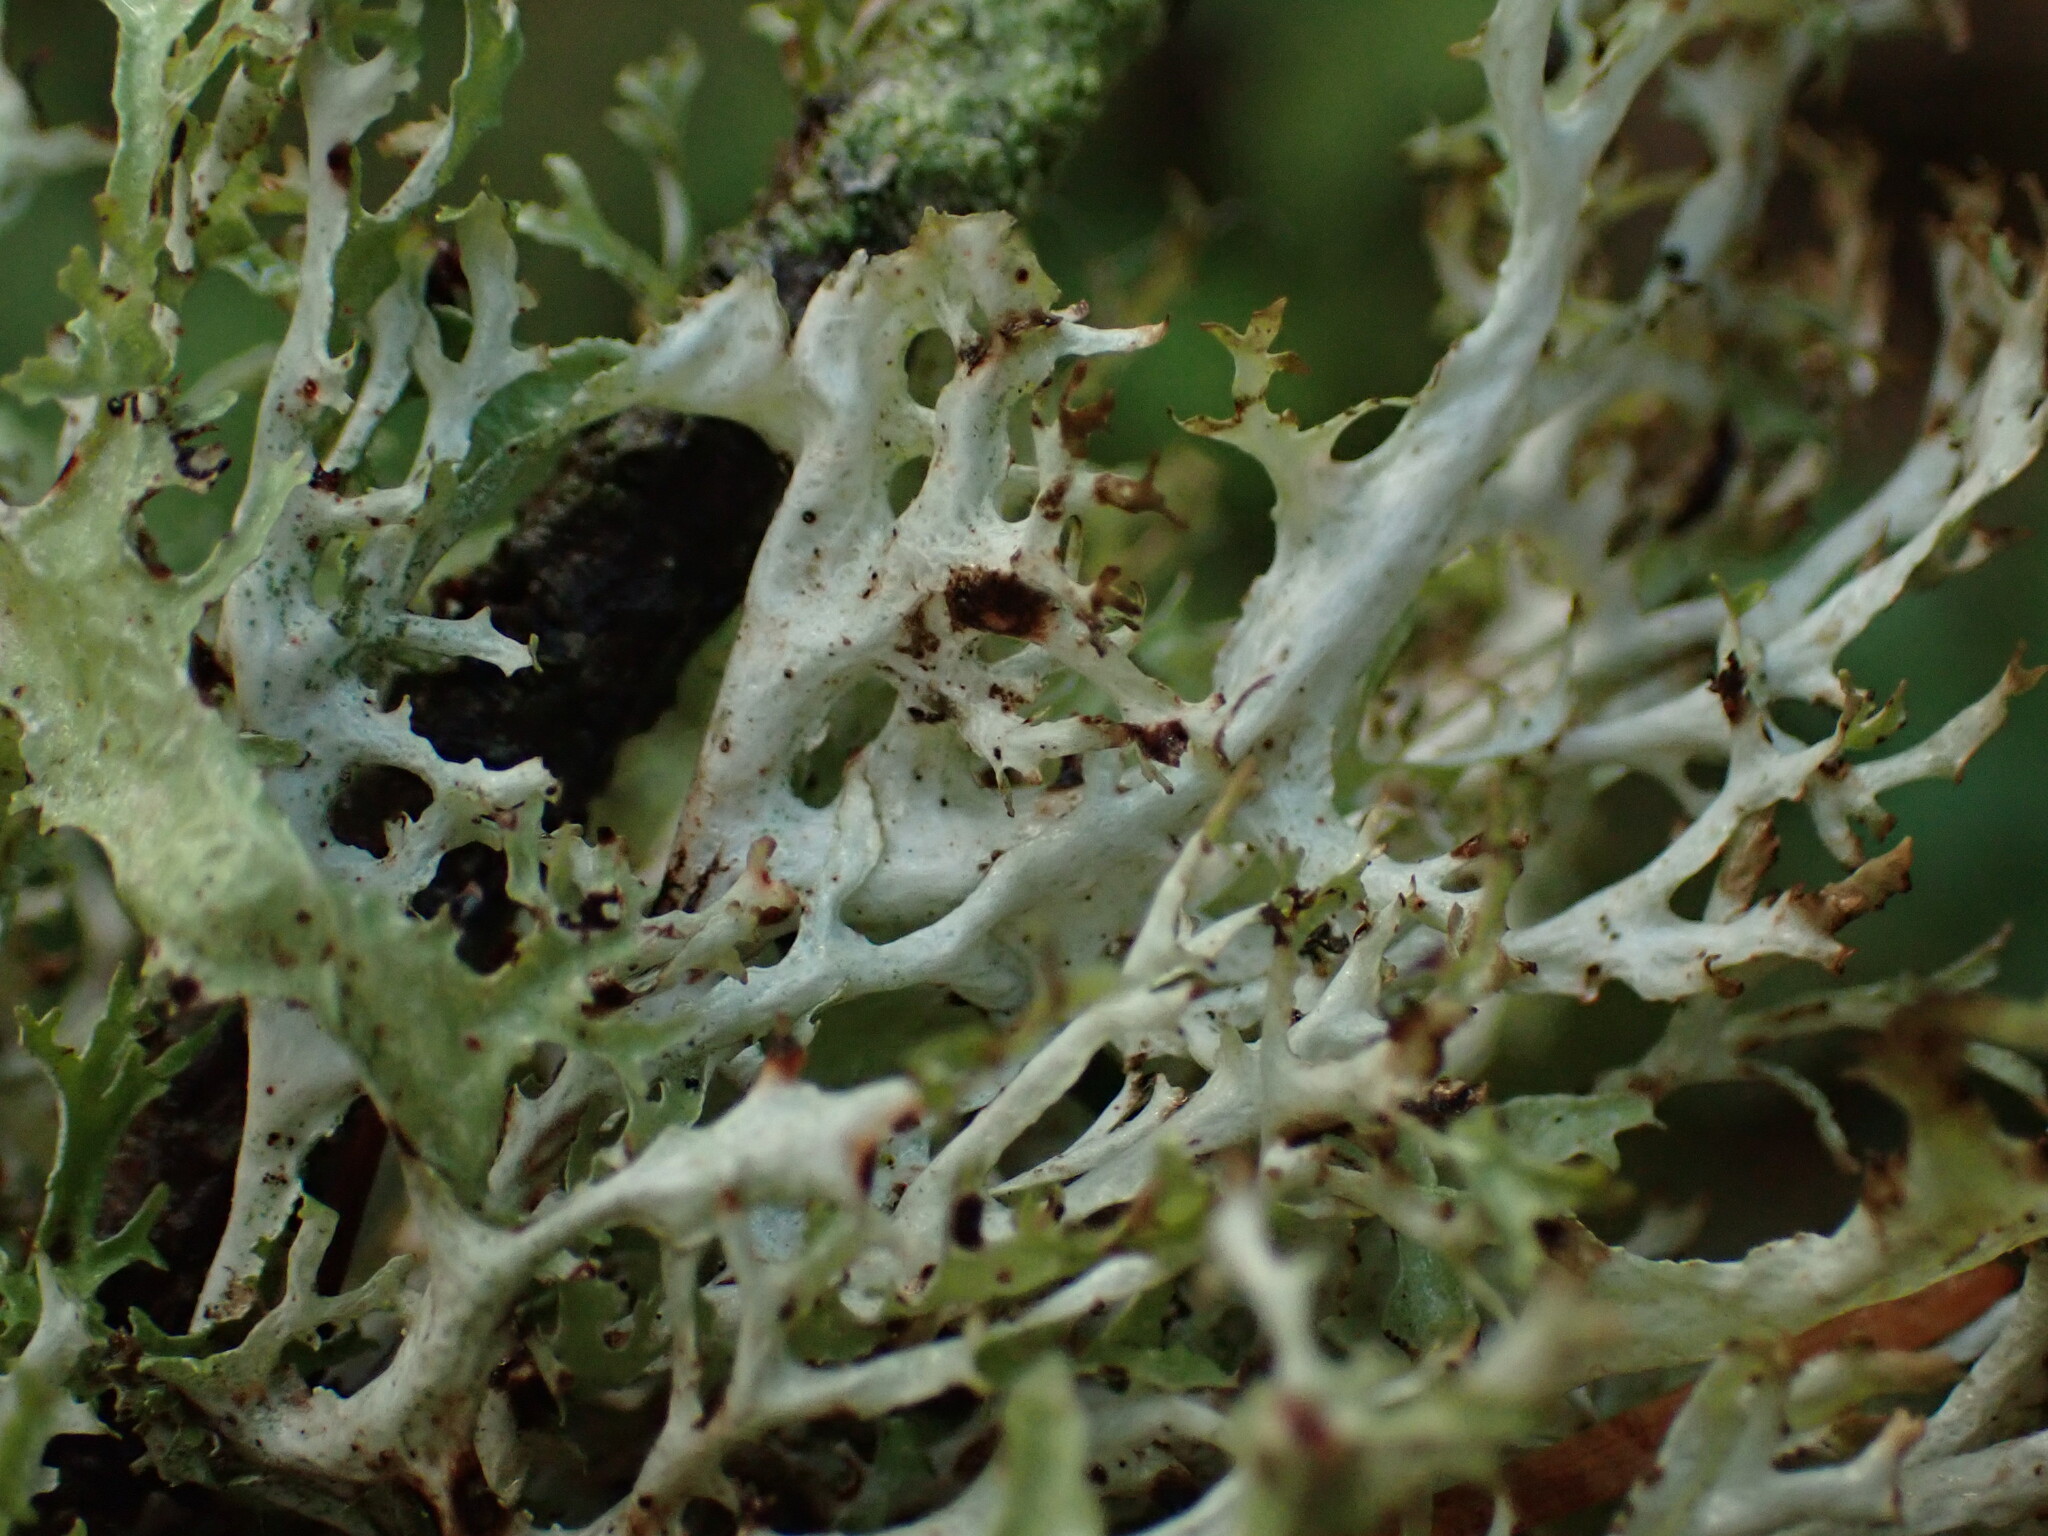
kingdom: Fungi
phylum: Ascomycota
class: Lecanoromycetes
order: Lecanorales
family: Parmeliaceae
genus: Platismatia
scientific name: Platismatia stenophylla
